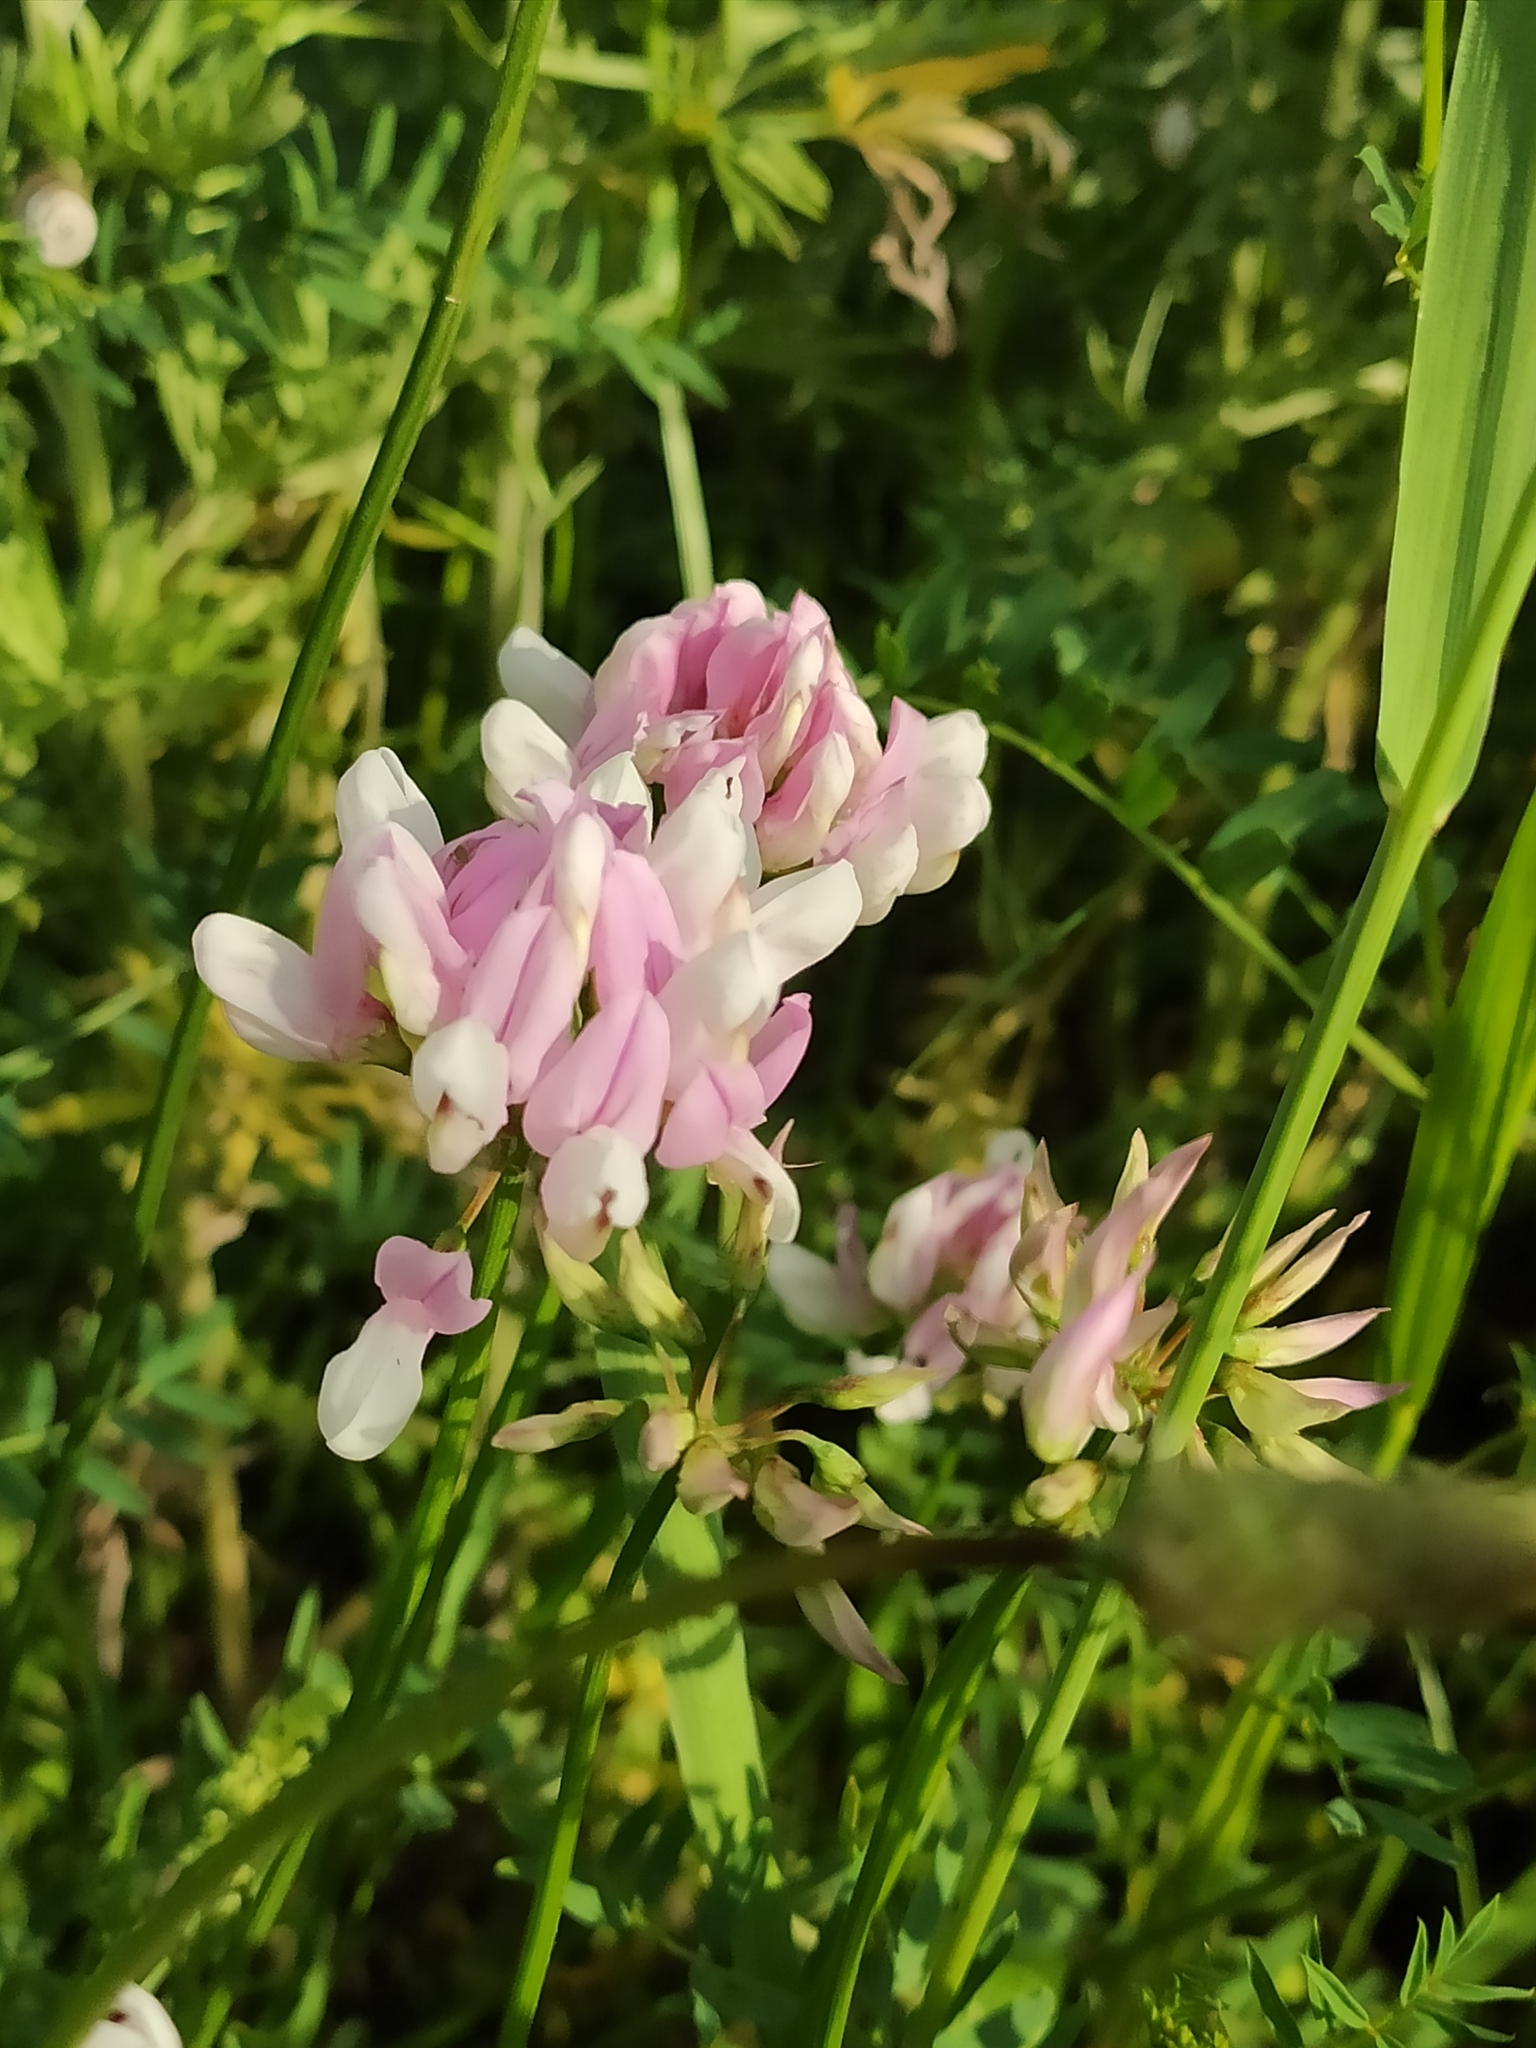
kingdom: Plantae
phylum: Tracheophyta
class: Magnoliopsida
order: Fabales
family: Fabaceae
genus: Coronilla
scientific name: Coronilla varia
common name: Crownvetch
